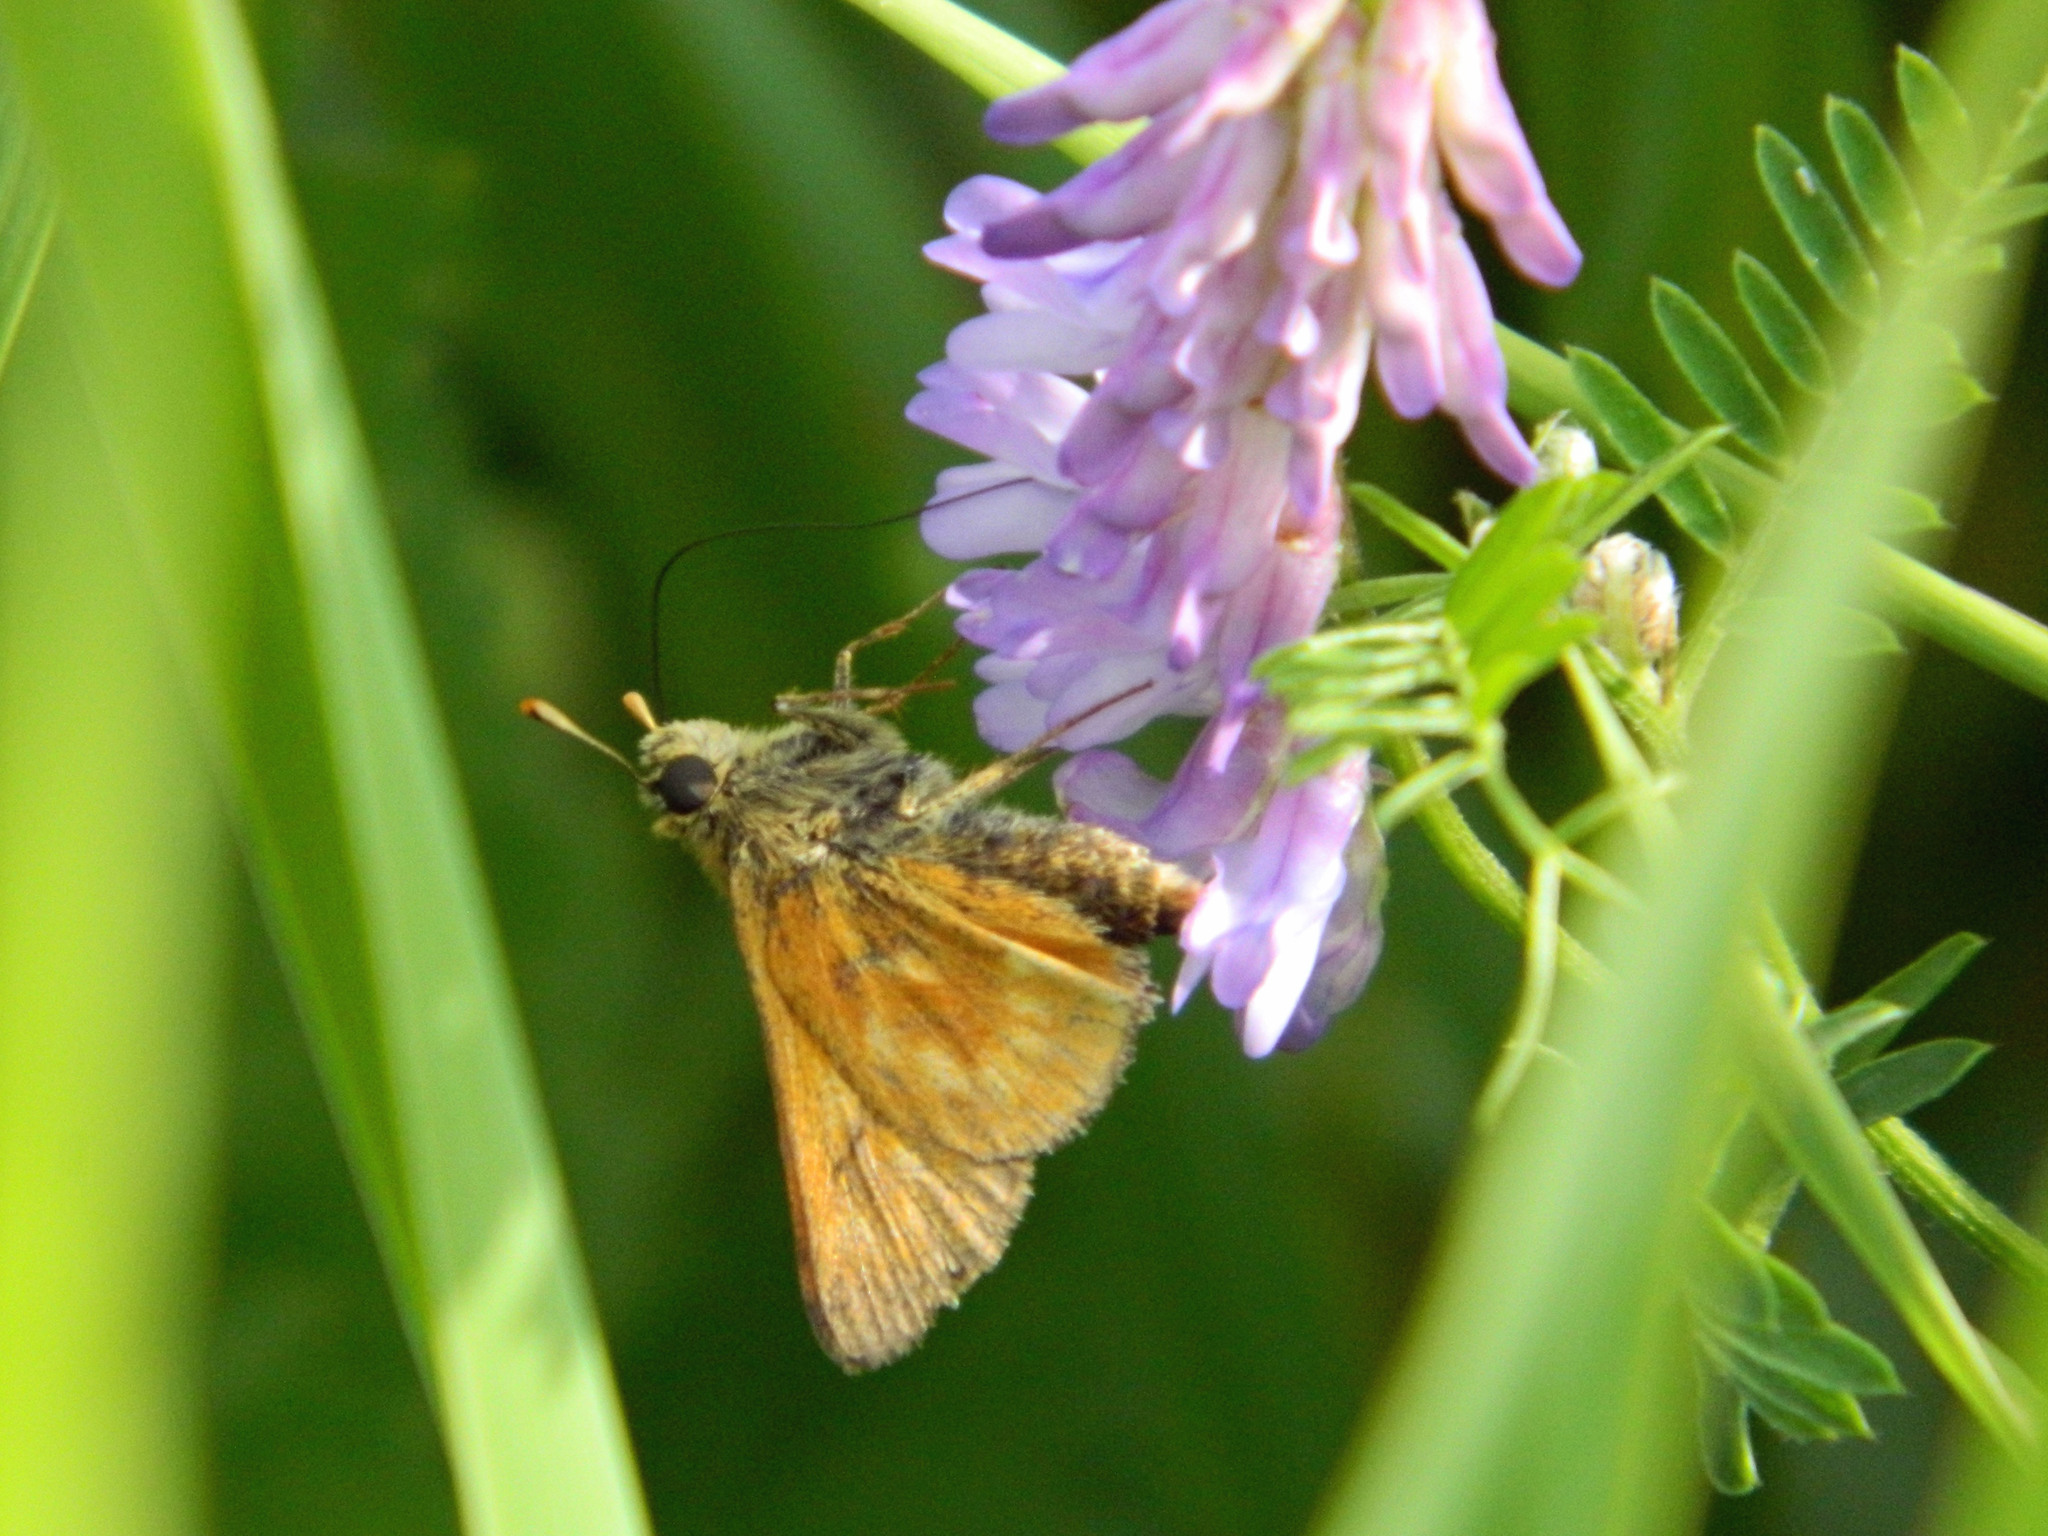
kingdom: Animalia
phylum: Arthropoda
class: Insecta
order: Lepidoptera
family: Hesperiidae
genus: Polites
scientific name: Polites mystic
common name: Long dash
